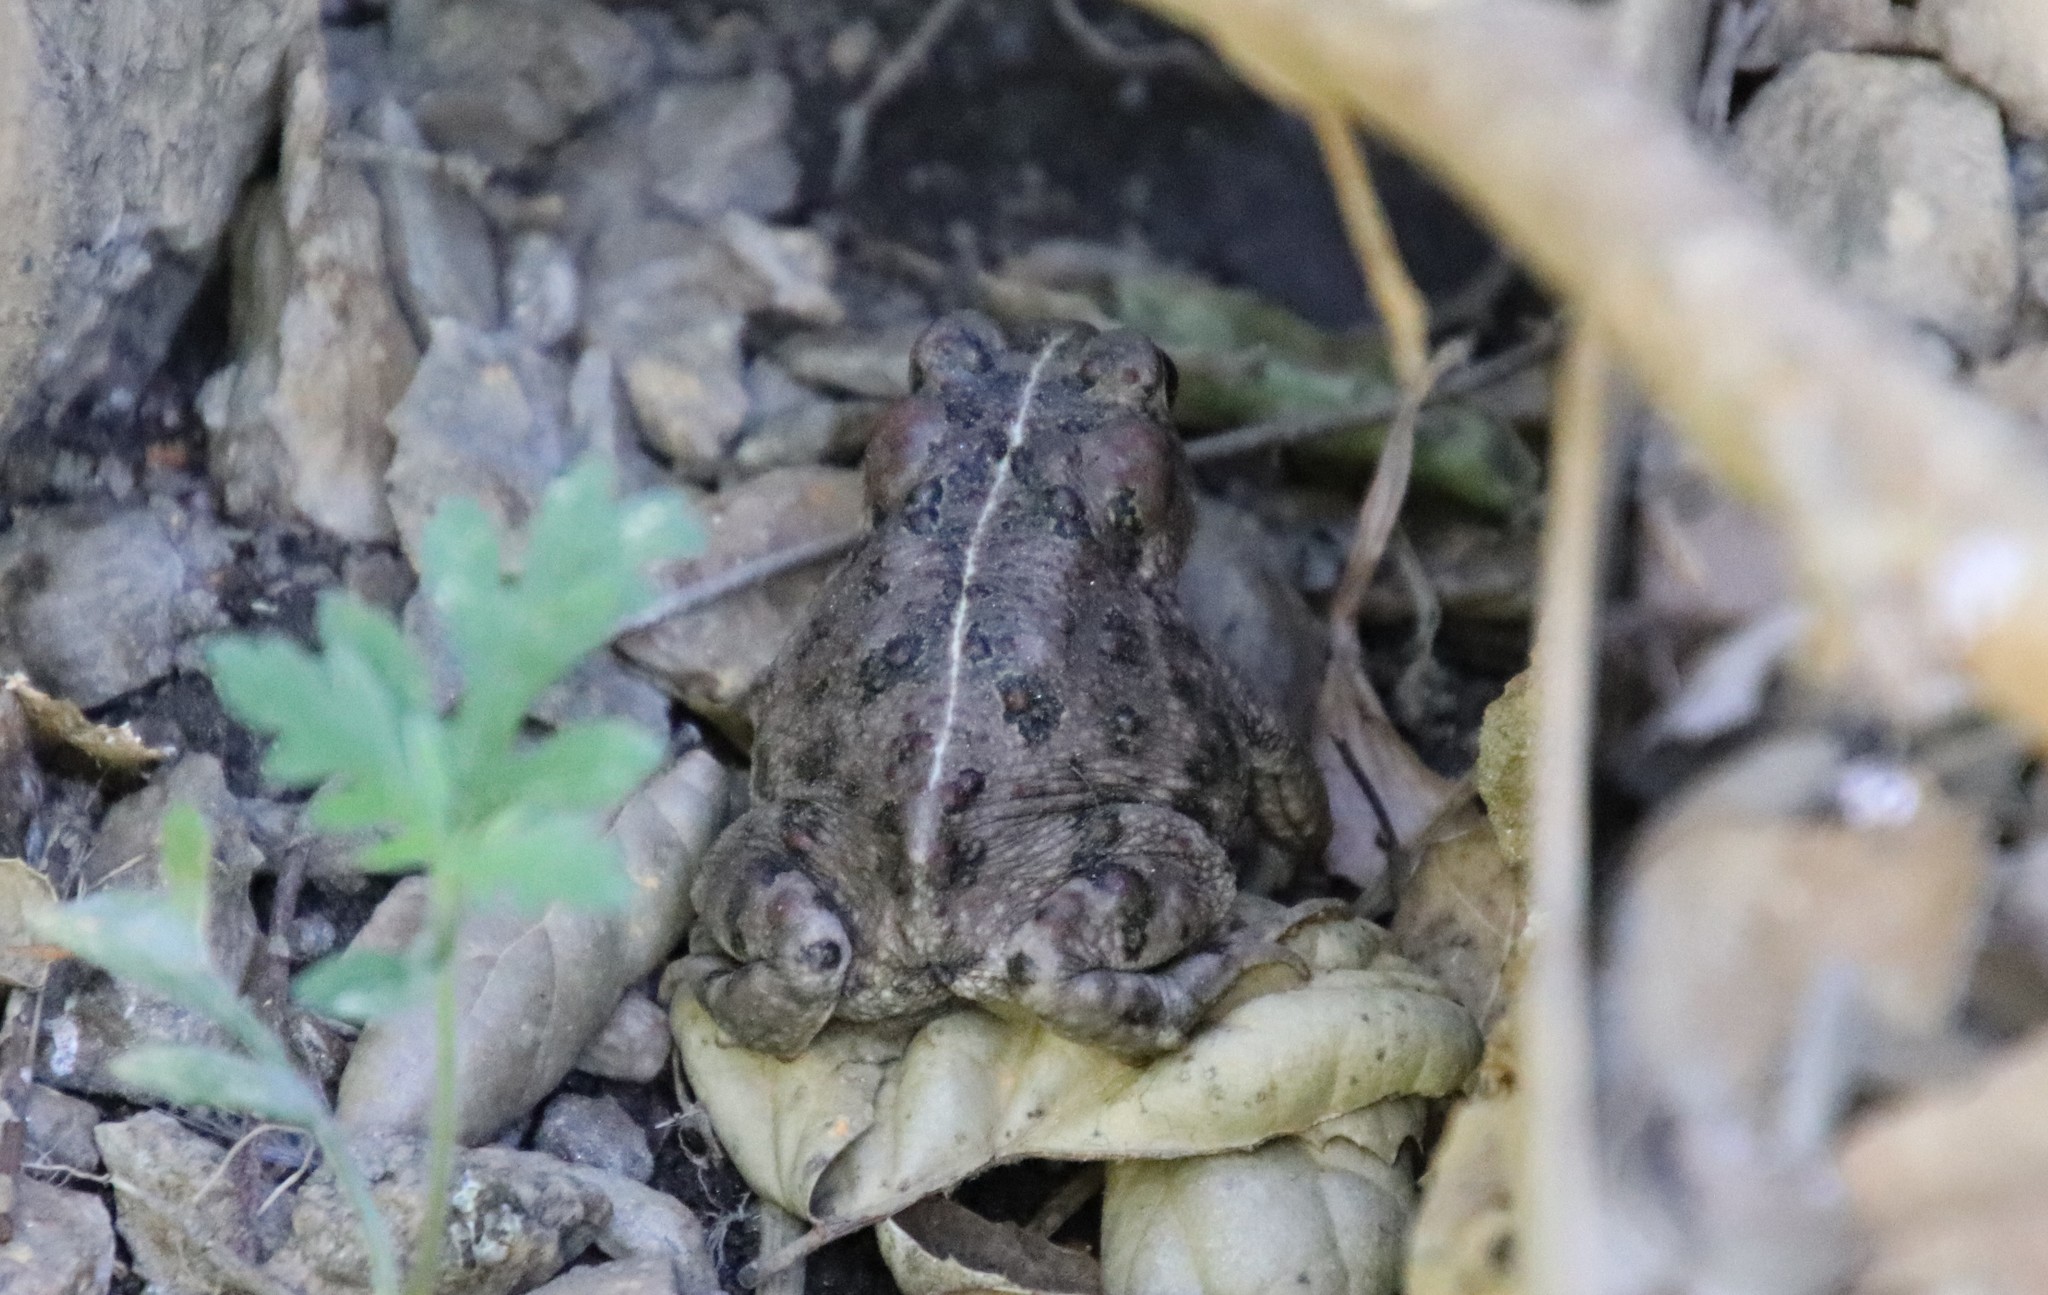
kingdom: Animalia
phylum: Chordata
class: Amphibia
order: Anura
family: Bufonidae
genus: Anaxyrus
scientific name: Anaxyrus boreas
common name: Western toad
